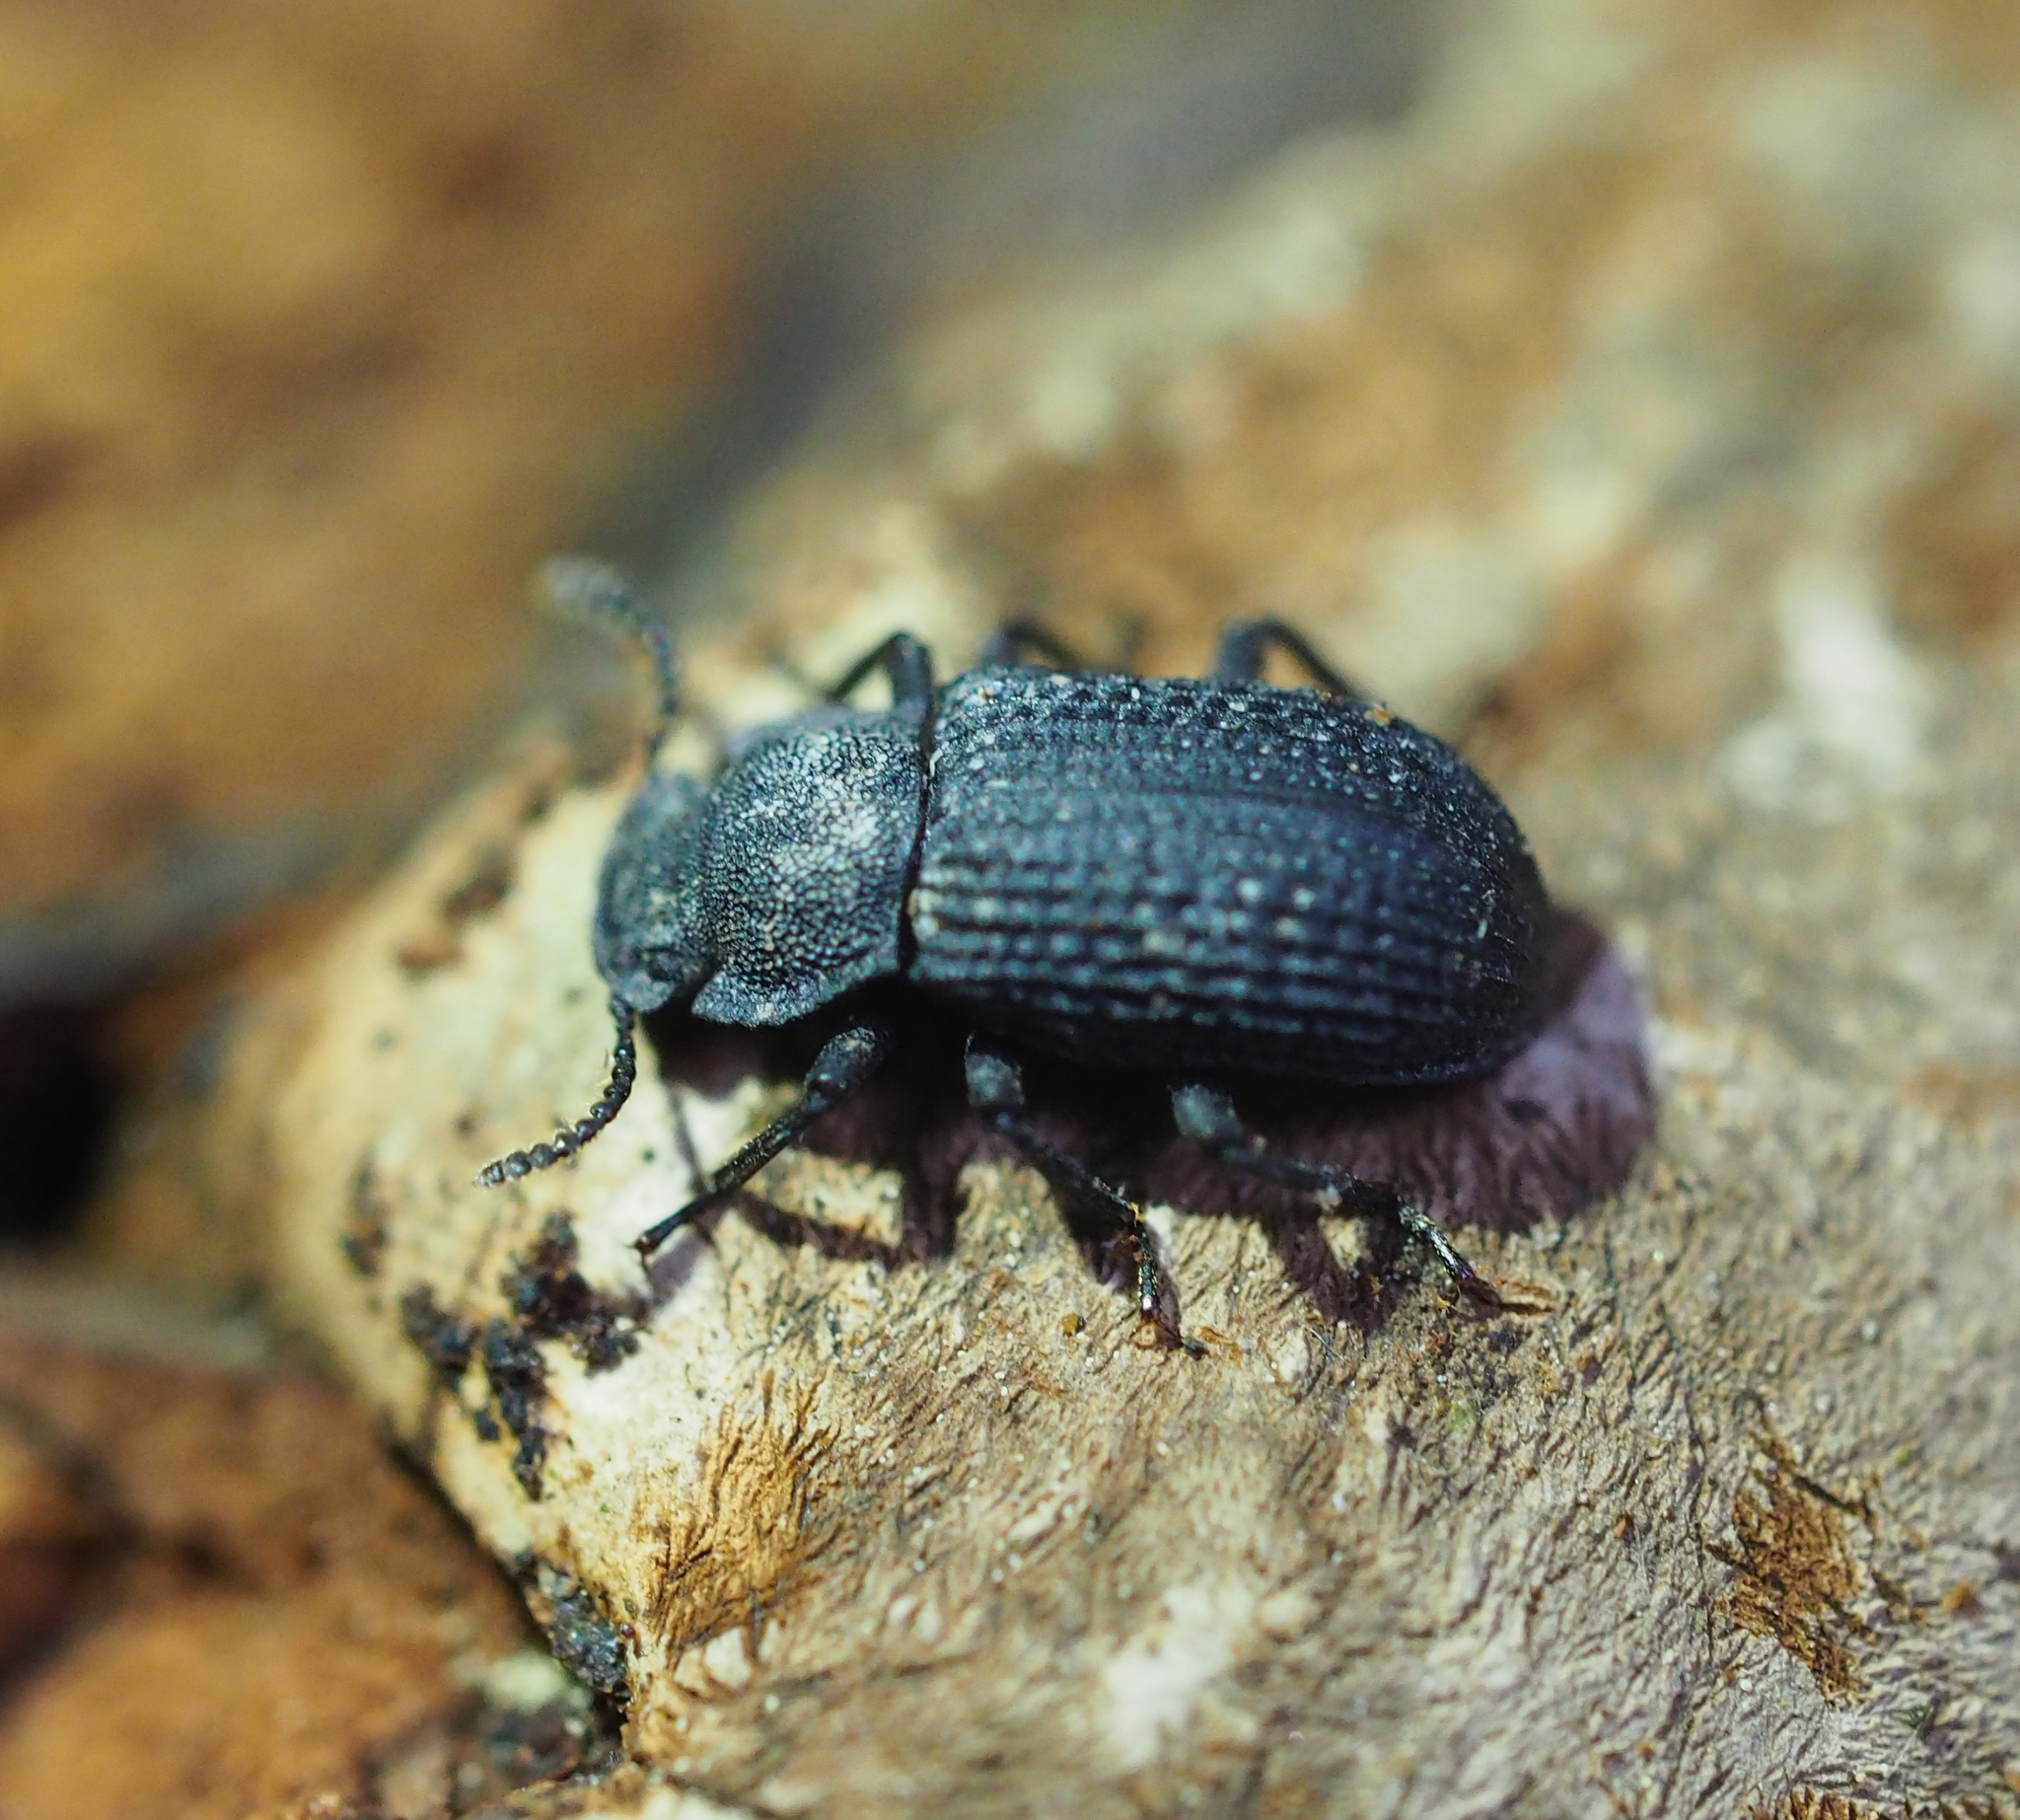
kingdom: Animalia
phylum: Arthropoda
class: Insecta
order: Coleoptera
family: Tenebrionidae
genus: Bolitophagus
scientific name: Bolitophagus reticulatus
